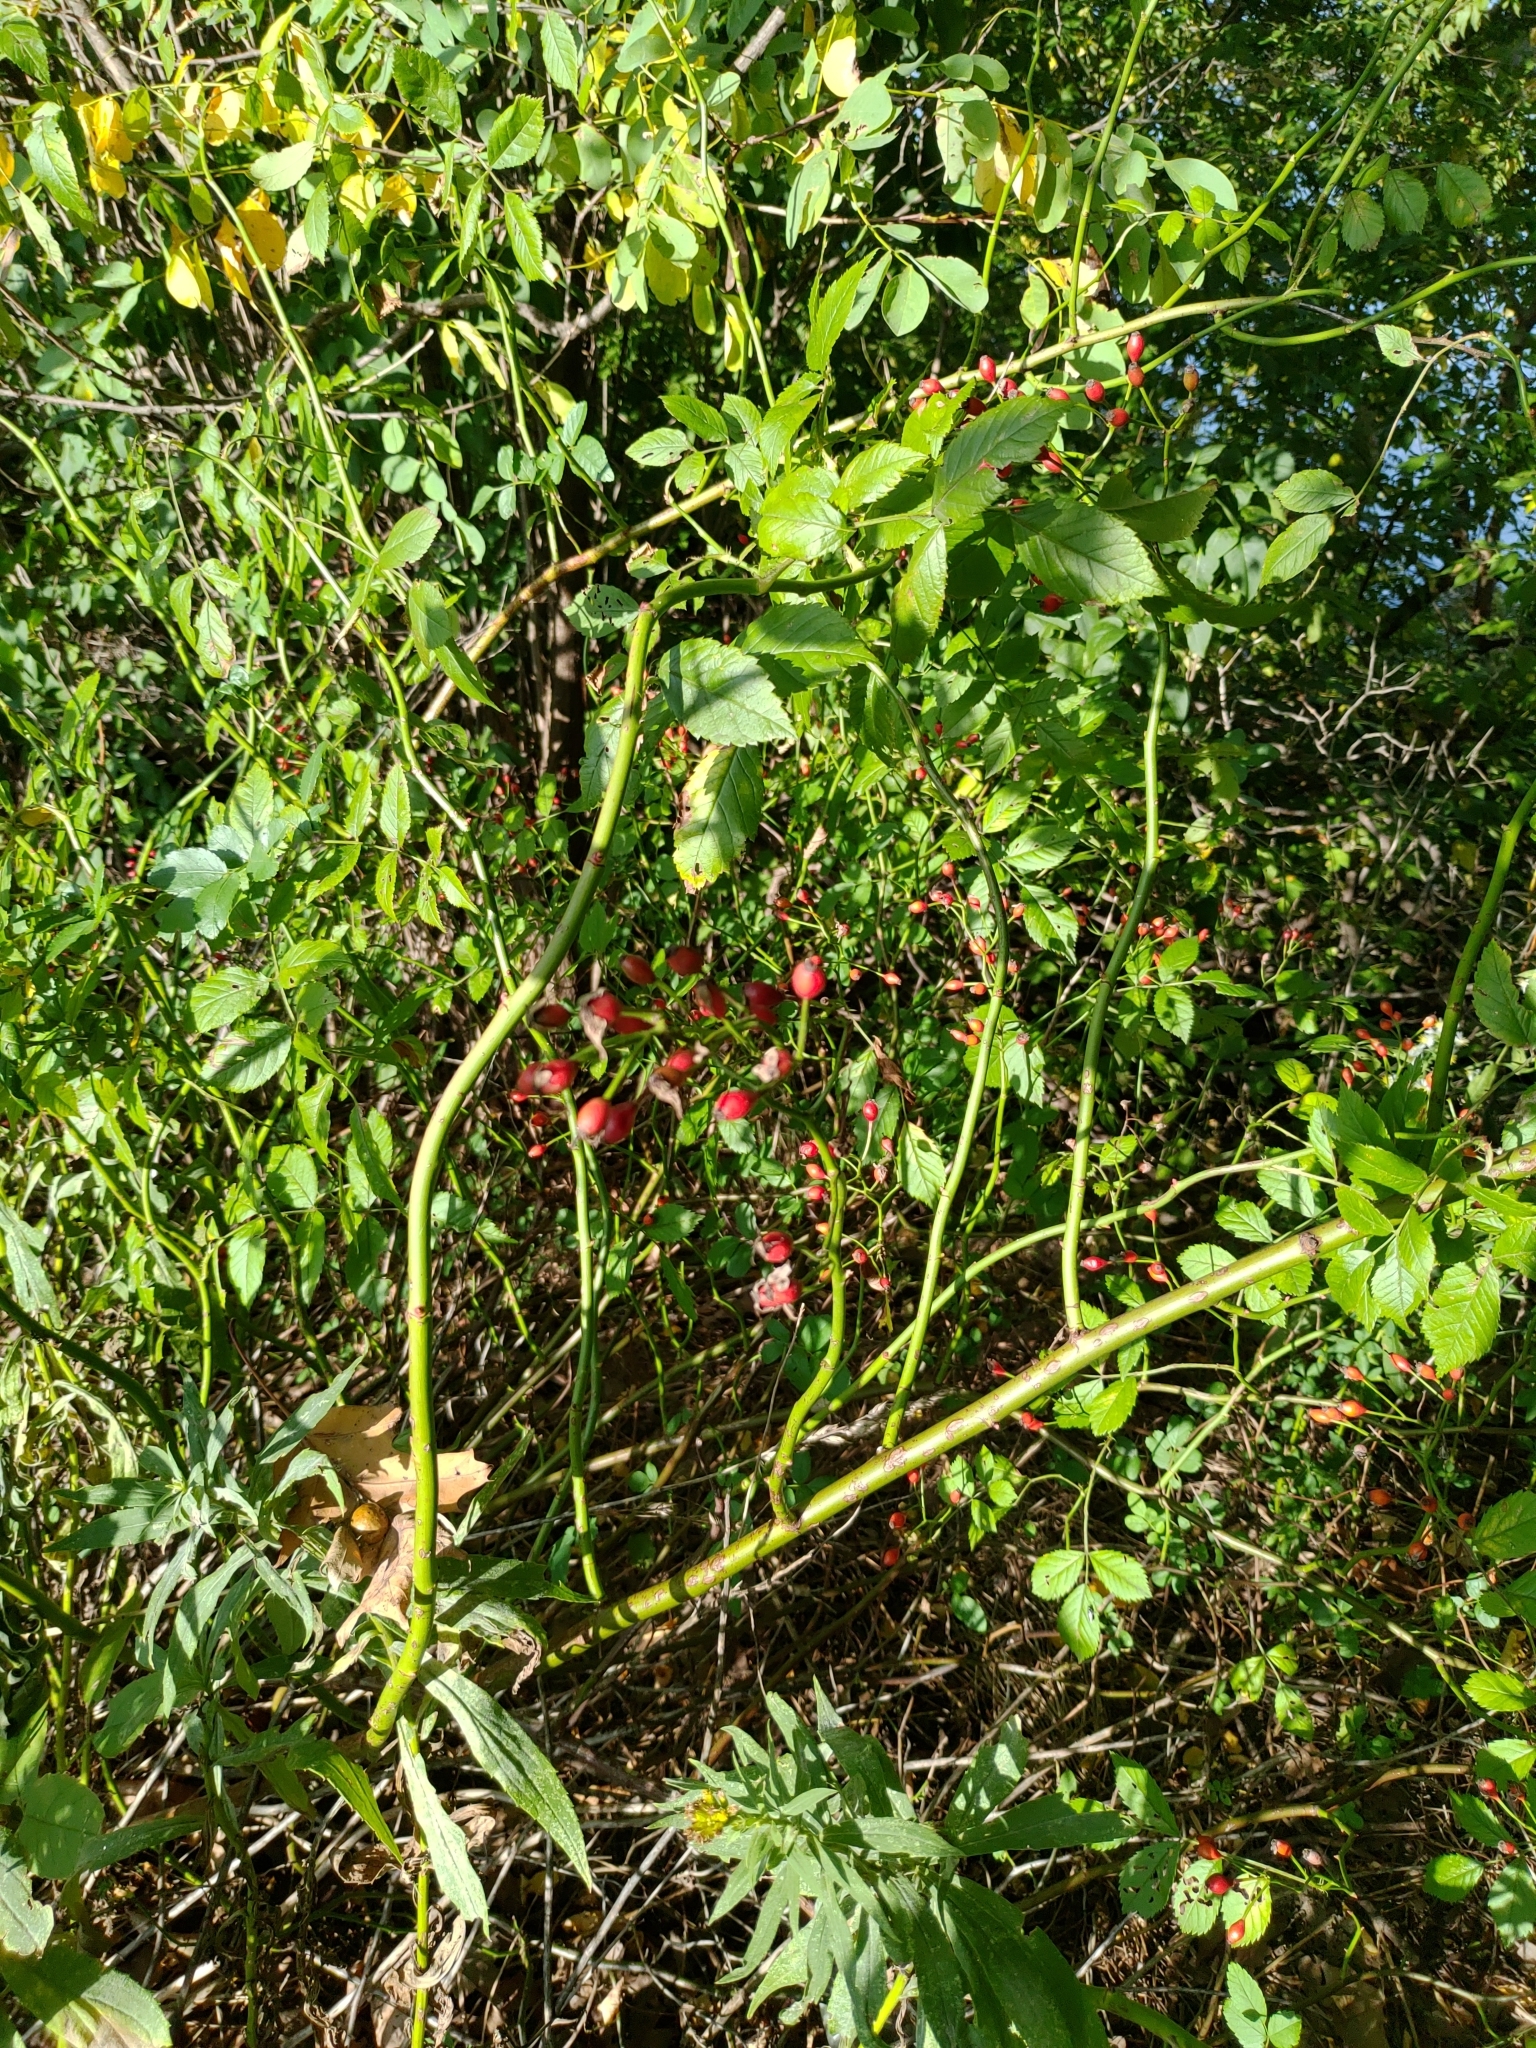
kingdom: Plantae
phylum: Tracheophyta
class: Magnoliopsida
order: Rosales
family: Rosaceae
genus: Rosa
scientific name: Rosa multiflora
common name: Multiflora rose
